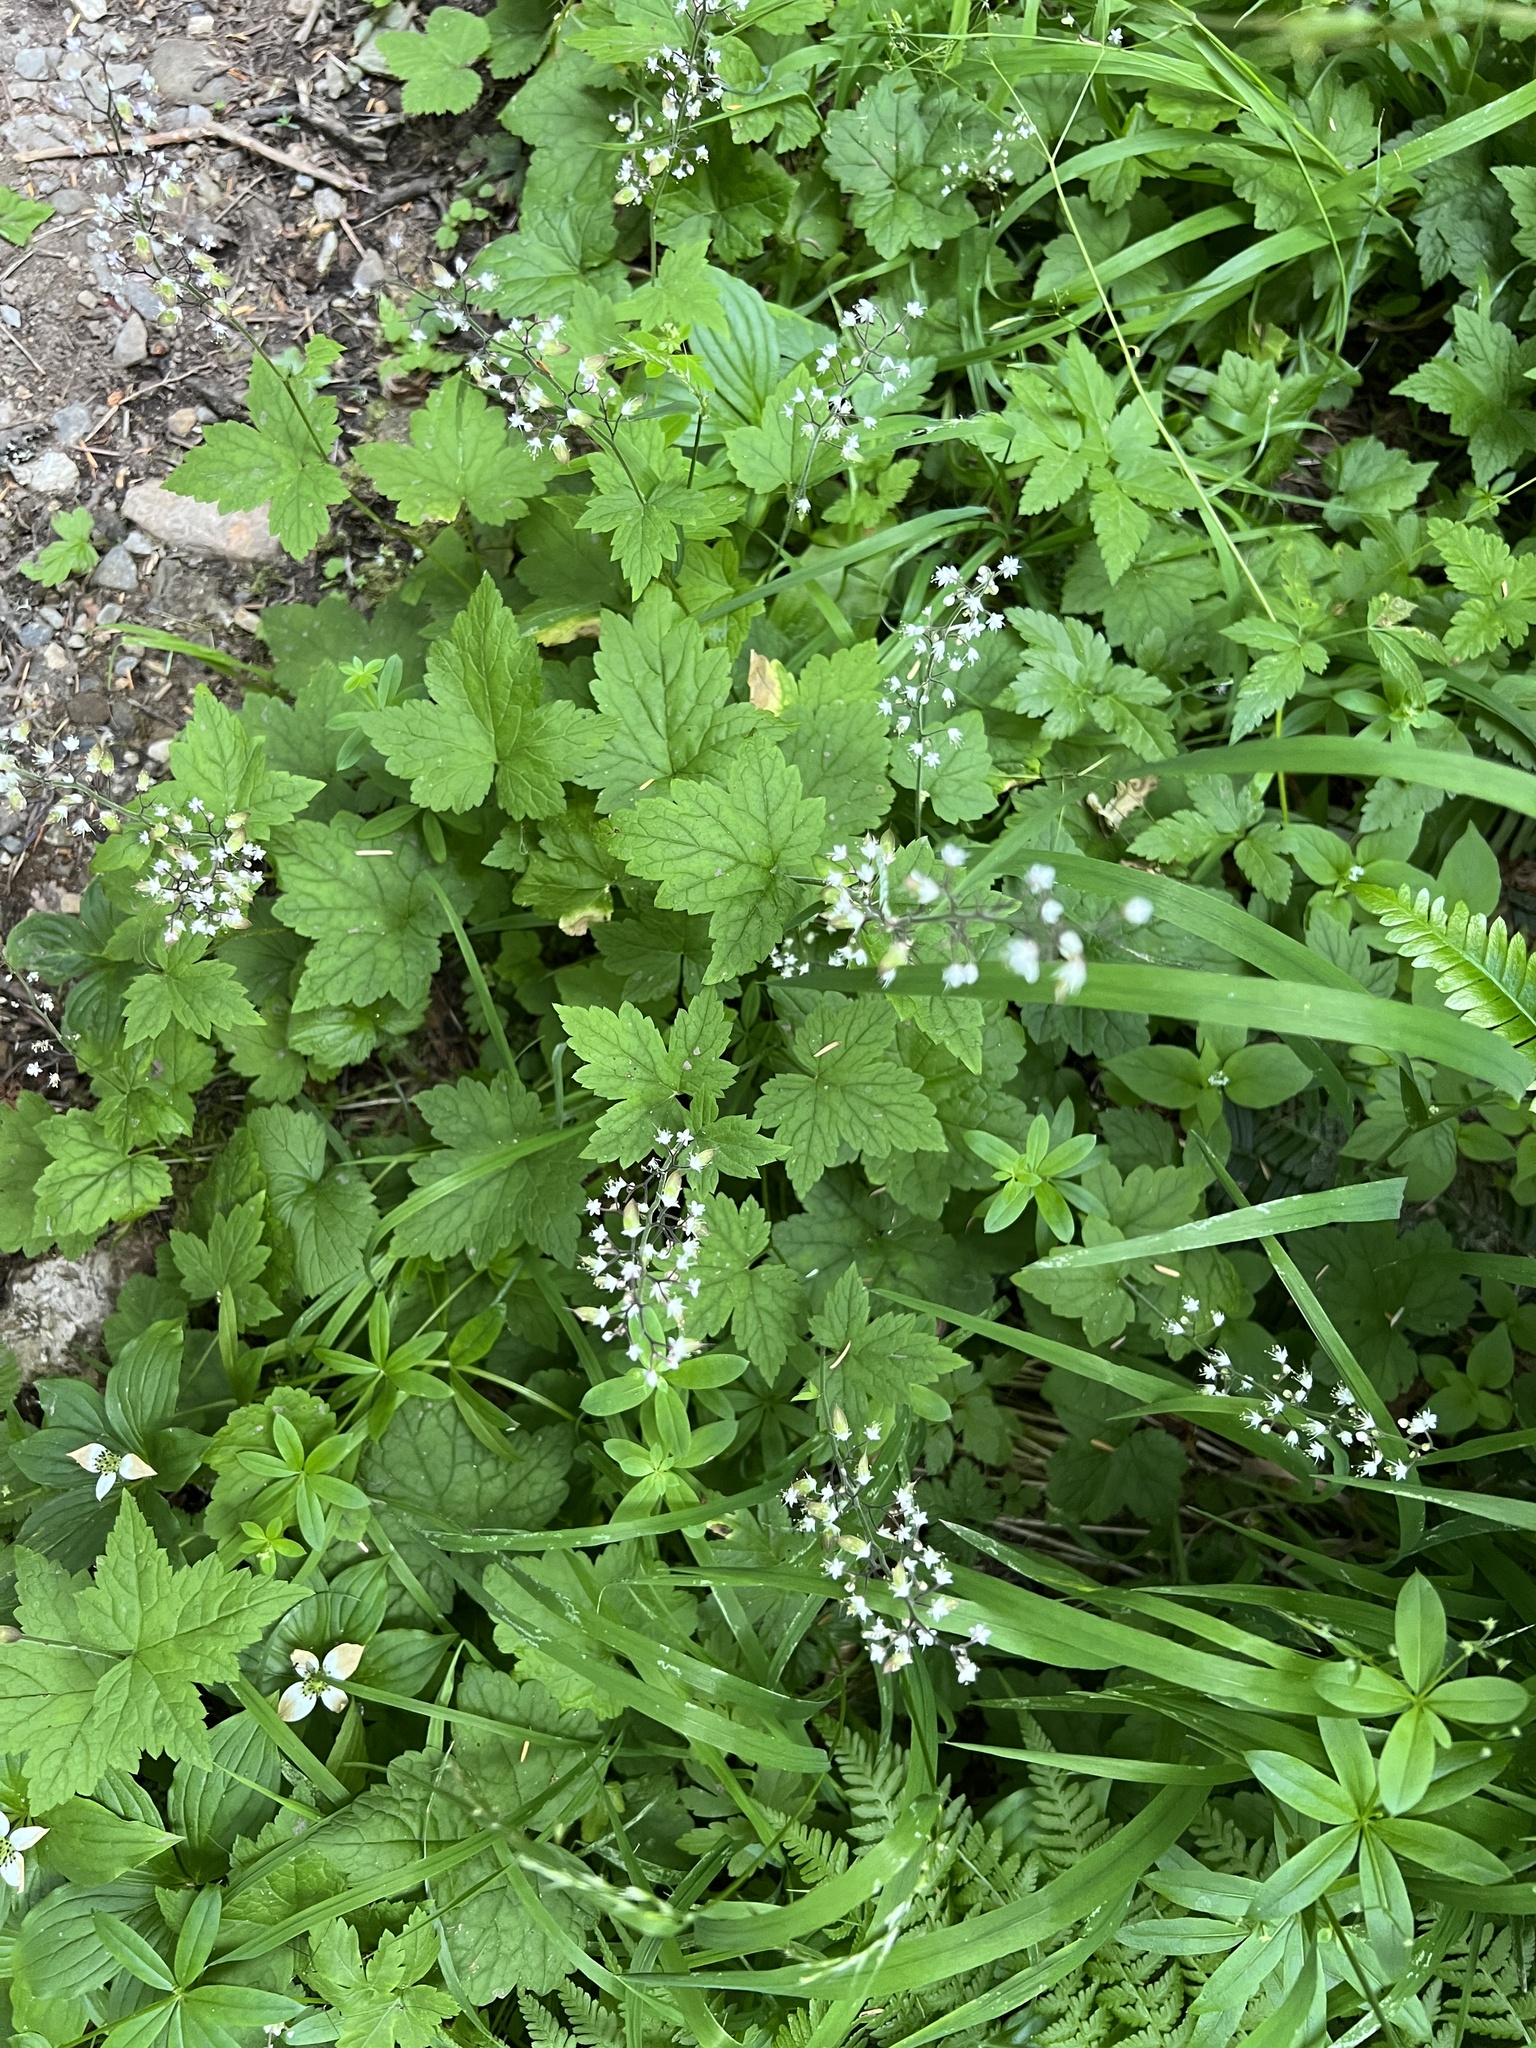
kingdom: Plantae
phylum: Tracheophyta
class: Magnoliopsida
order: Saxifragales
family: Saxifragaceae
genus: Tiarella
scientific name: Tiarella trifoliata
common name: Sugar-scoop
